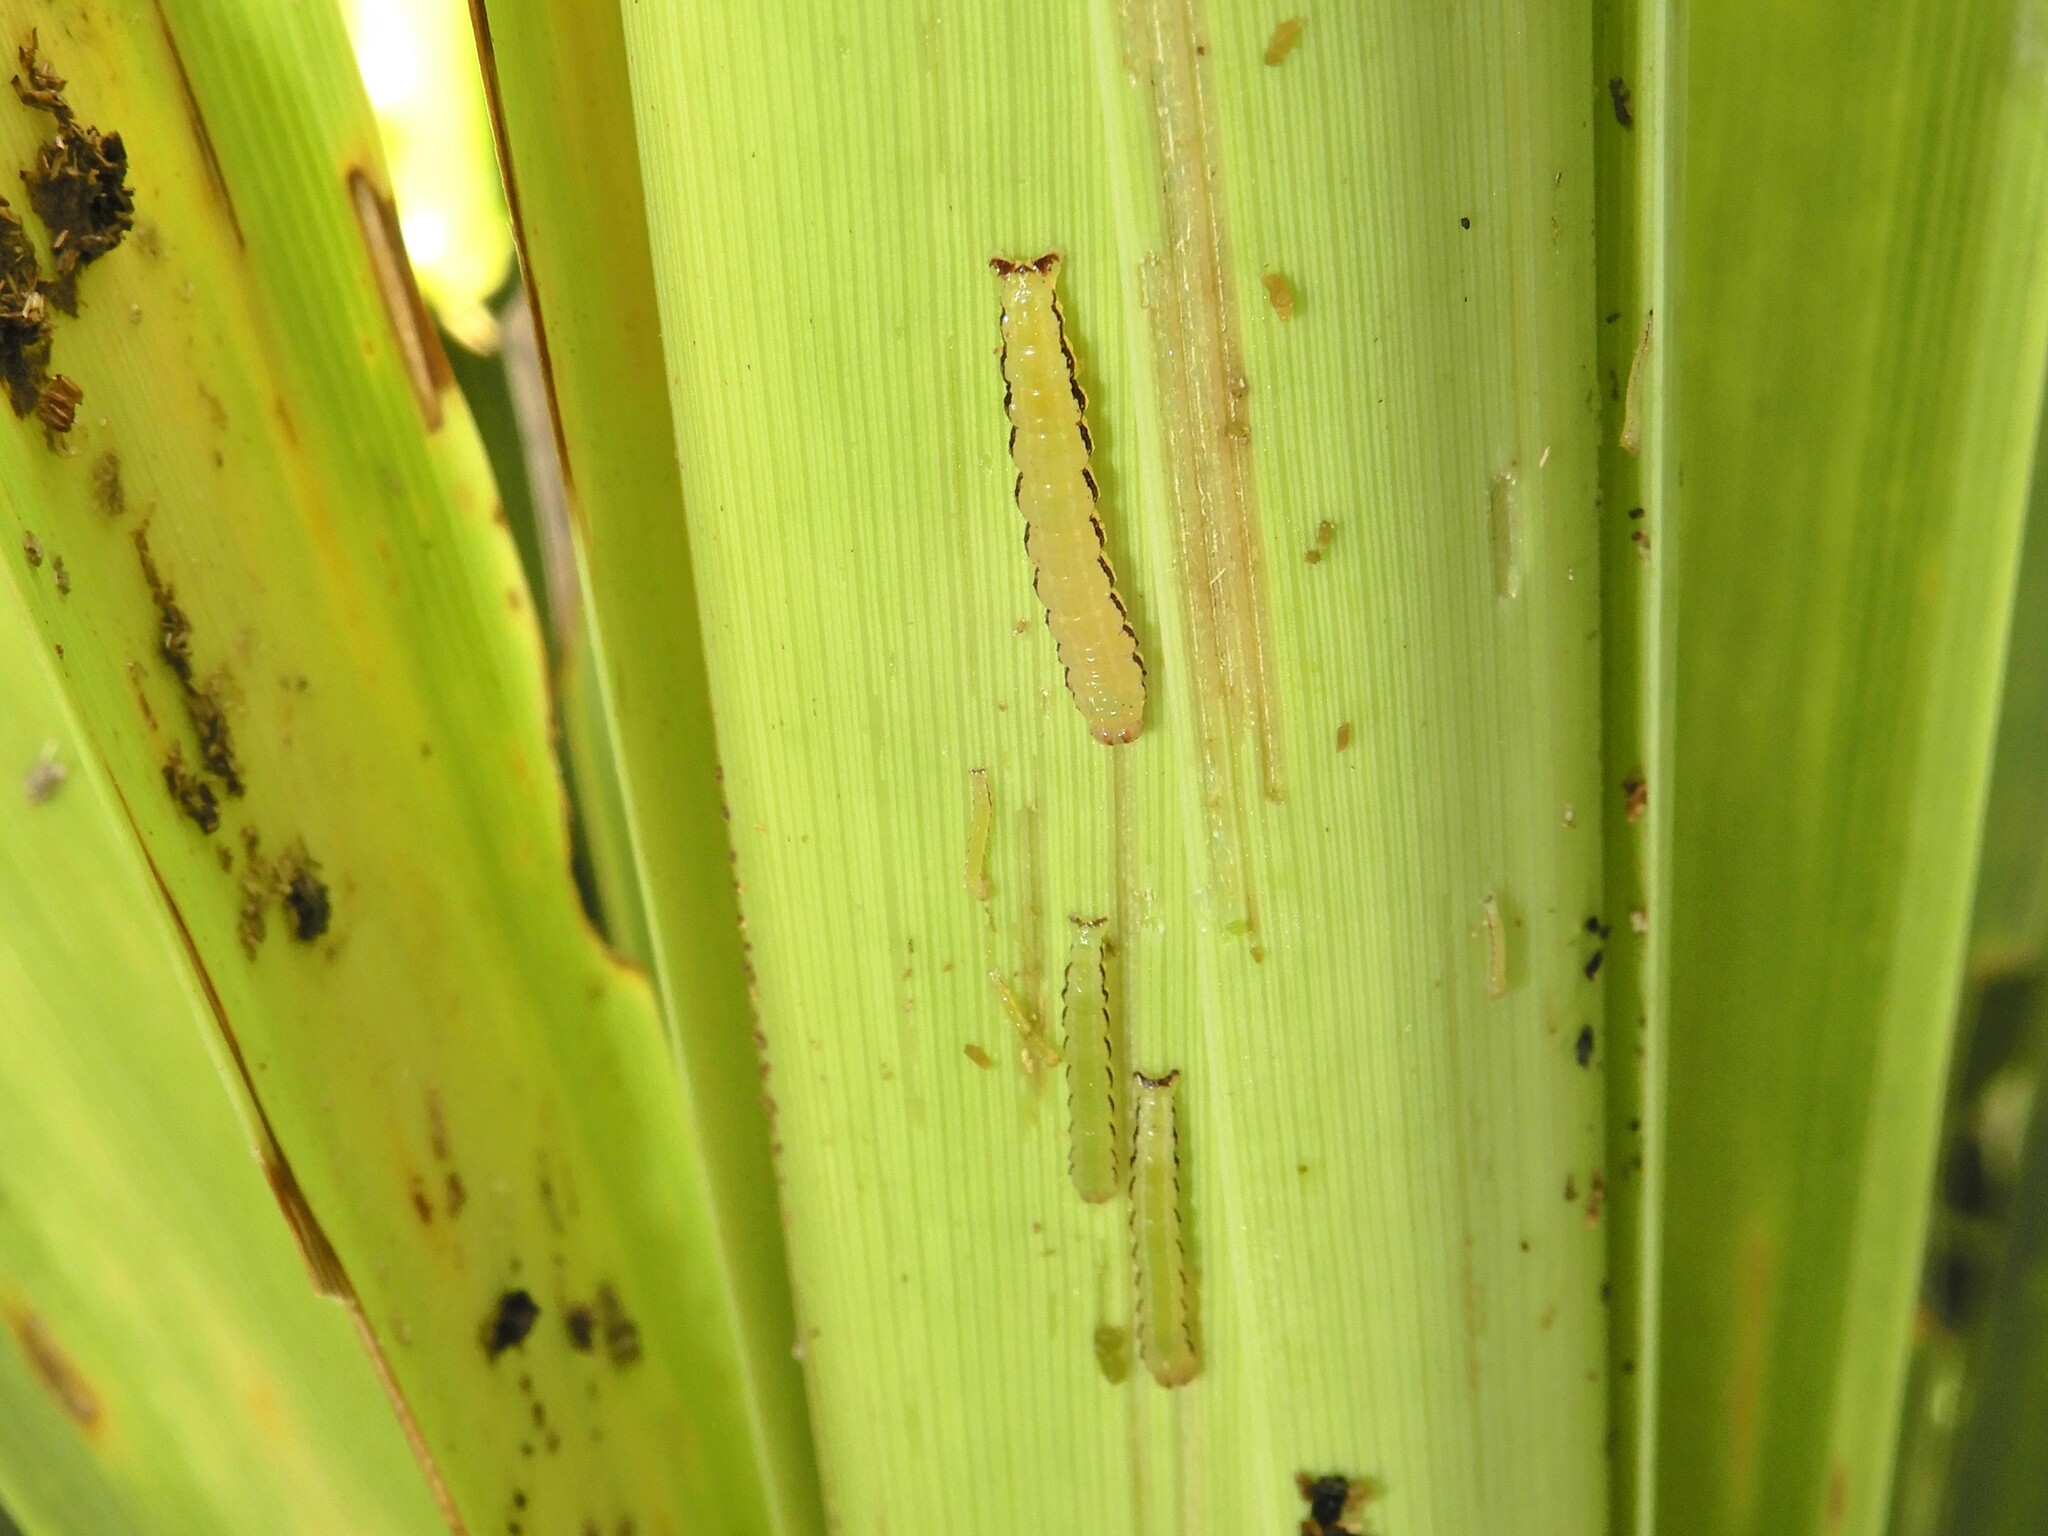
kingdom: Animalia
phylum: Arthropoda
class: Insecta
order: Lepidoptera
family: Geometridae
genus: Epiphryne
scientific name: Epiphryne verriculata
